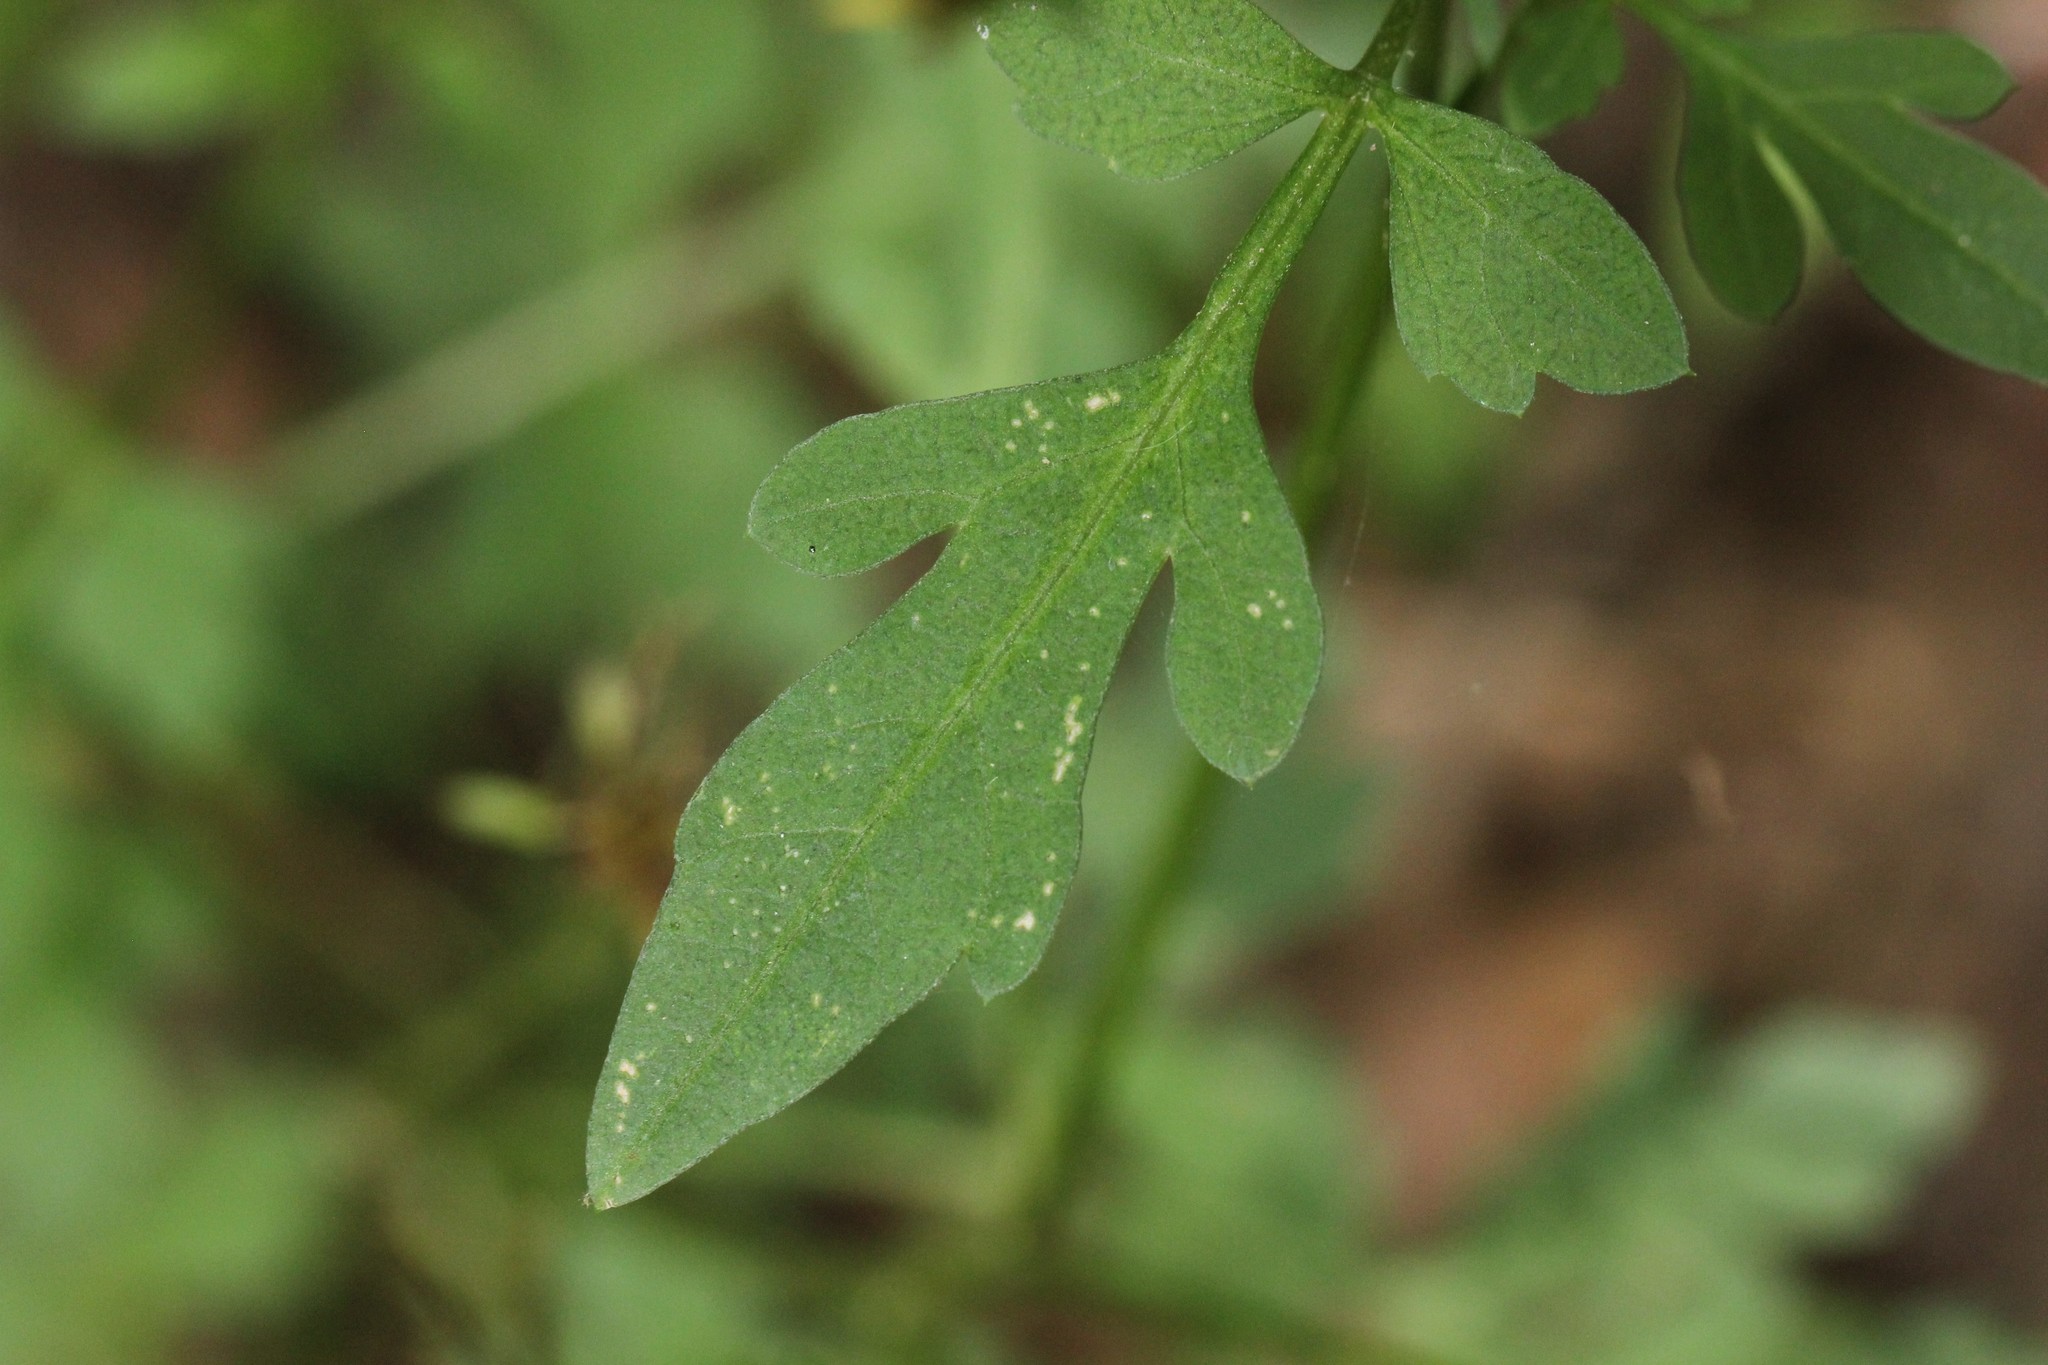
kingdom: Plantae
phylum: Tracheophyta
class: Magnoliopsida
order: Asterales
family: Asteraceae
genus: Bidens
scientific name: Bidens bipinnata
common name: Spanish-needles
